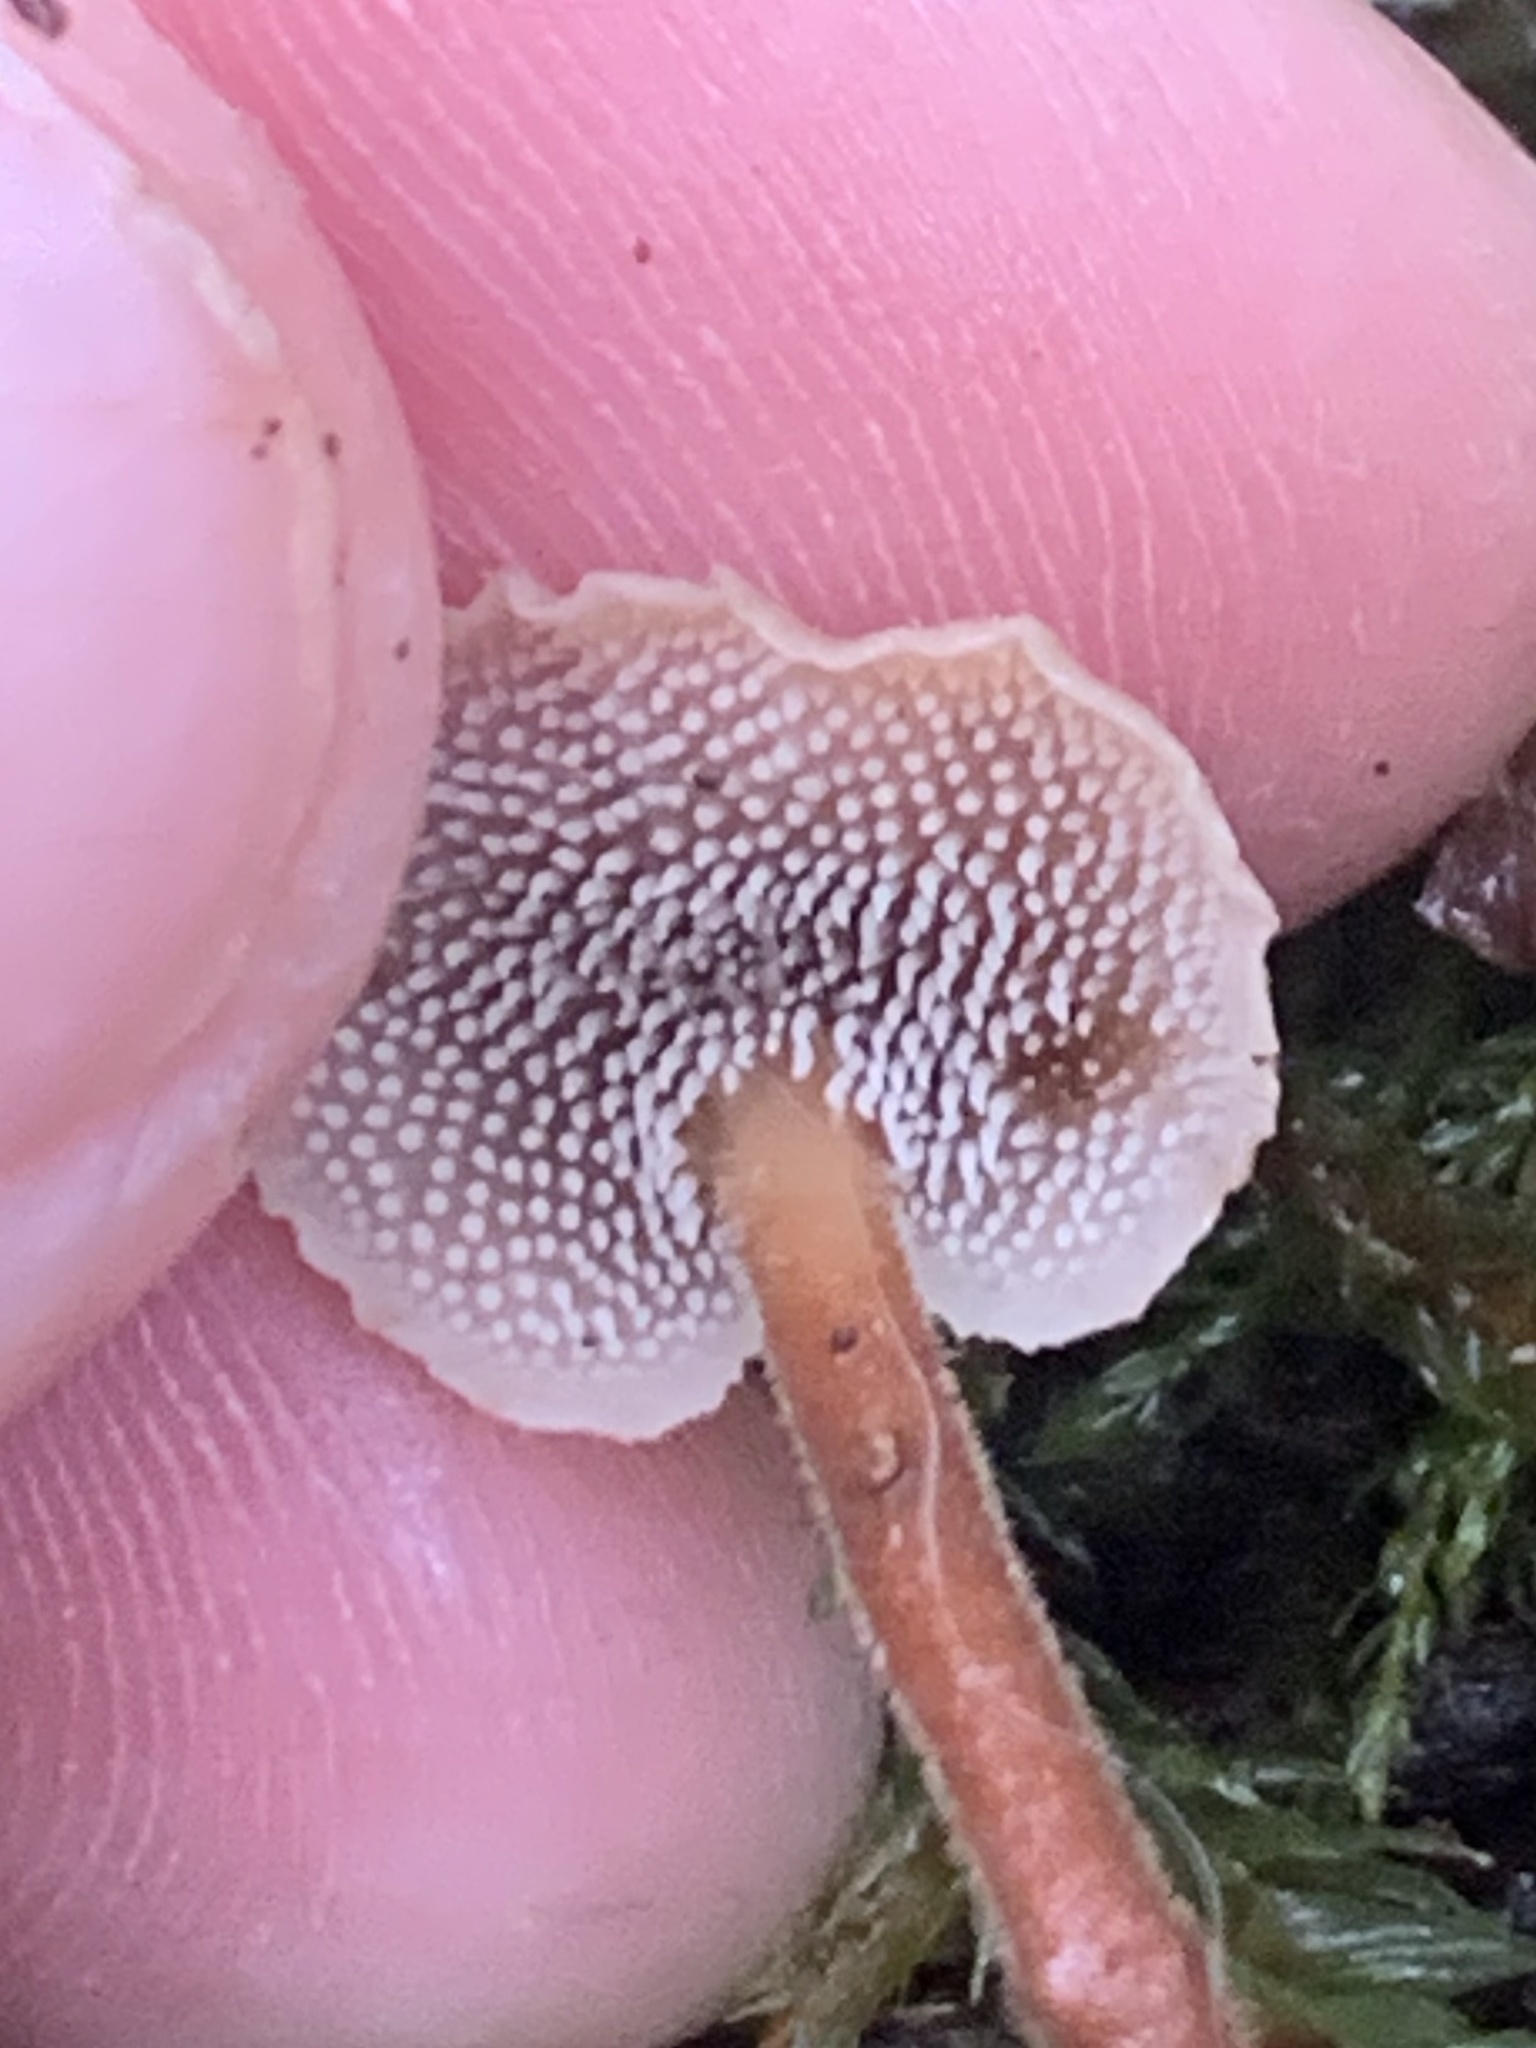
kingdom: Fungi
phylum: Basidiomycota
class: Agaricomycetes
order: Russulales
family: Auriscalpiaceae
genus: Auriscalpium
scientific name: Auriscalpium vulgare
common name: Earpick fungus
